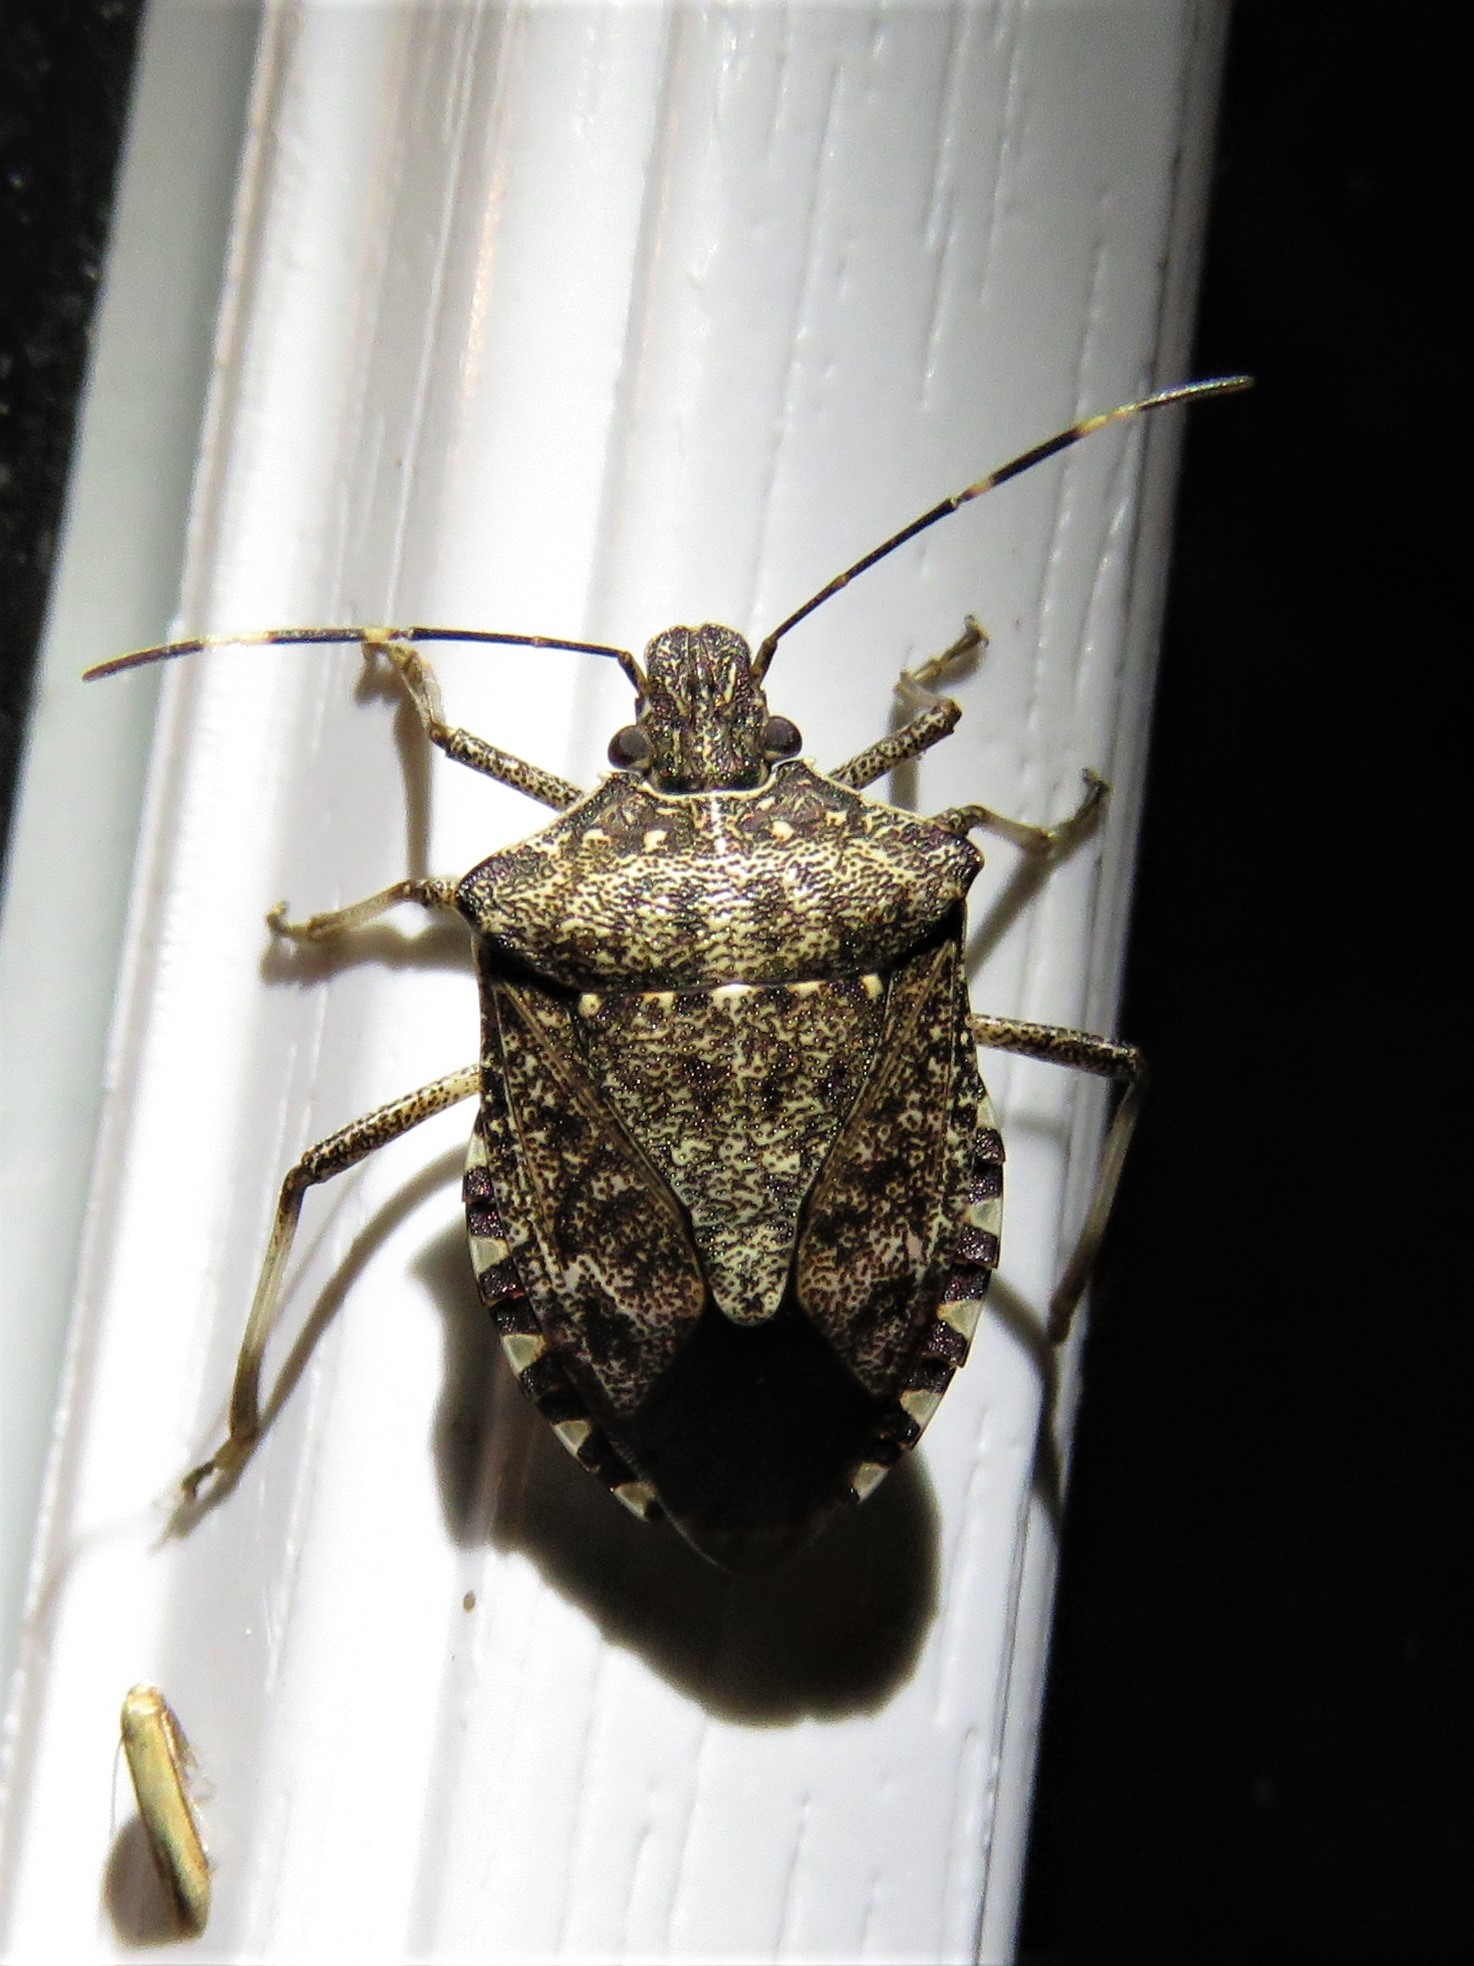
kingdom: Animalia
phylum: Arthropoda
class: Insecta
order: Hemiptera
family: Pentatomidae
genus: Halyomorpha
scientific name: Halyomorpha halys
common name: Brown marmorated stink bug
